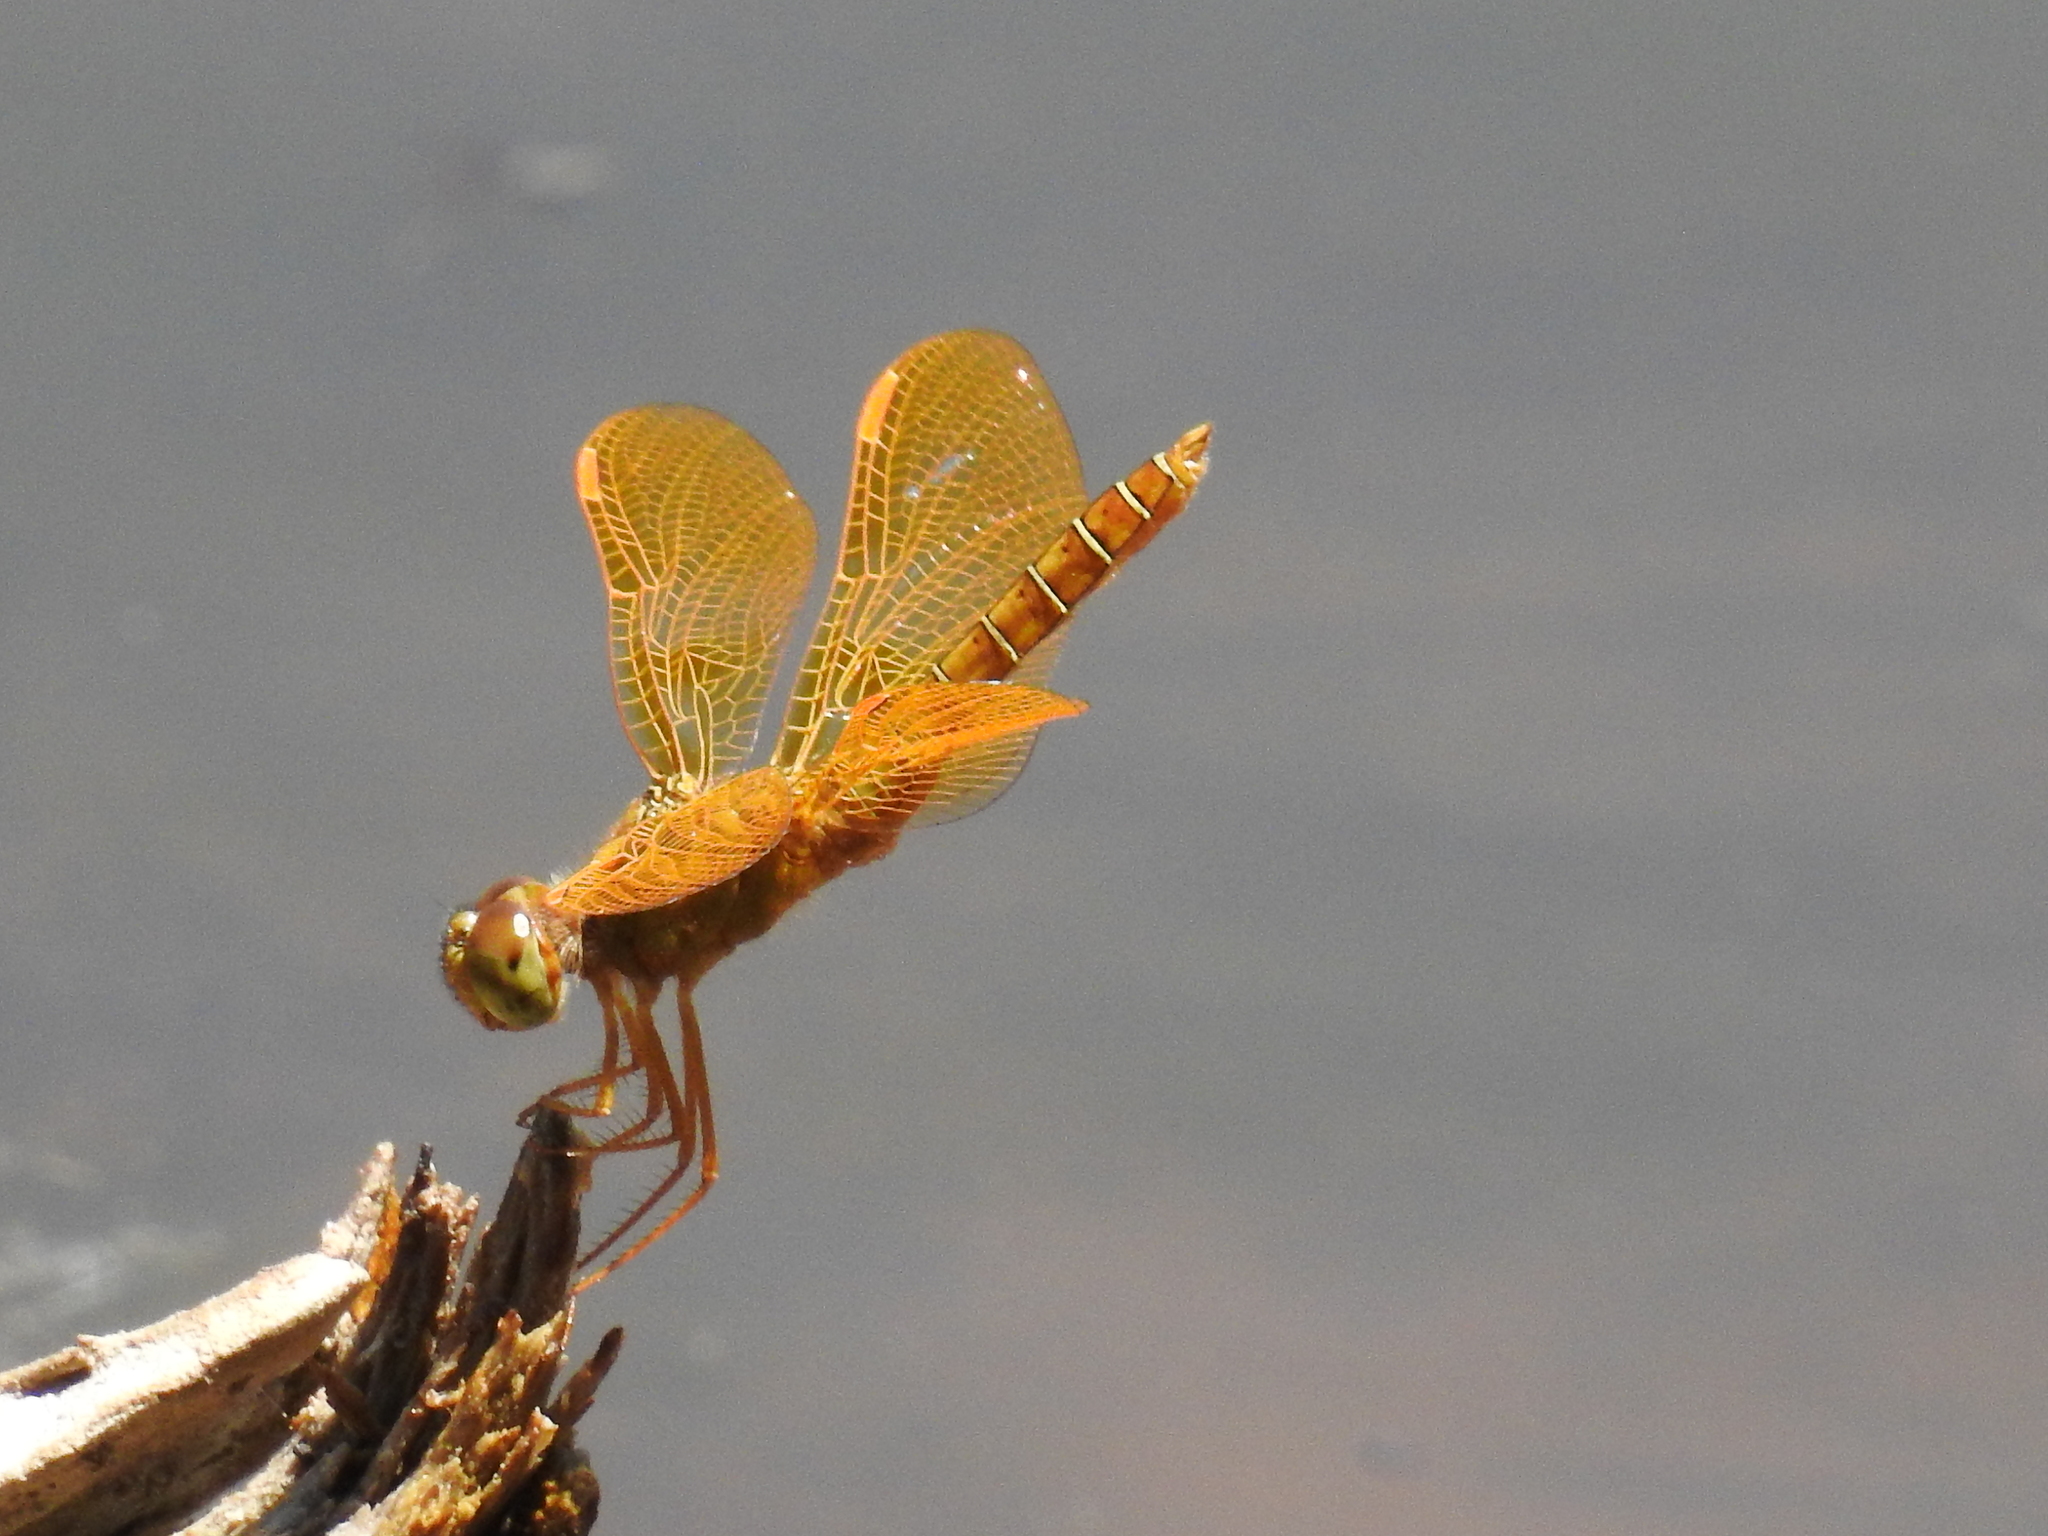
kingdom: Animalia
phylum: Arthropoda
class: Insecta
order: Odonata
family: Libellulidae
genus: Perithemis
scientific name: Perithemis intensa
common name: Mexican amberwing
